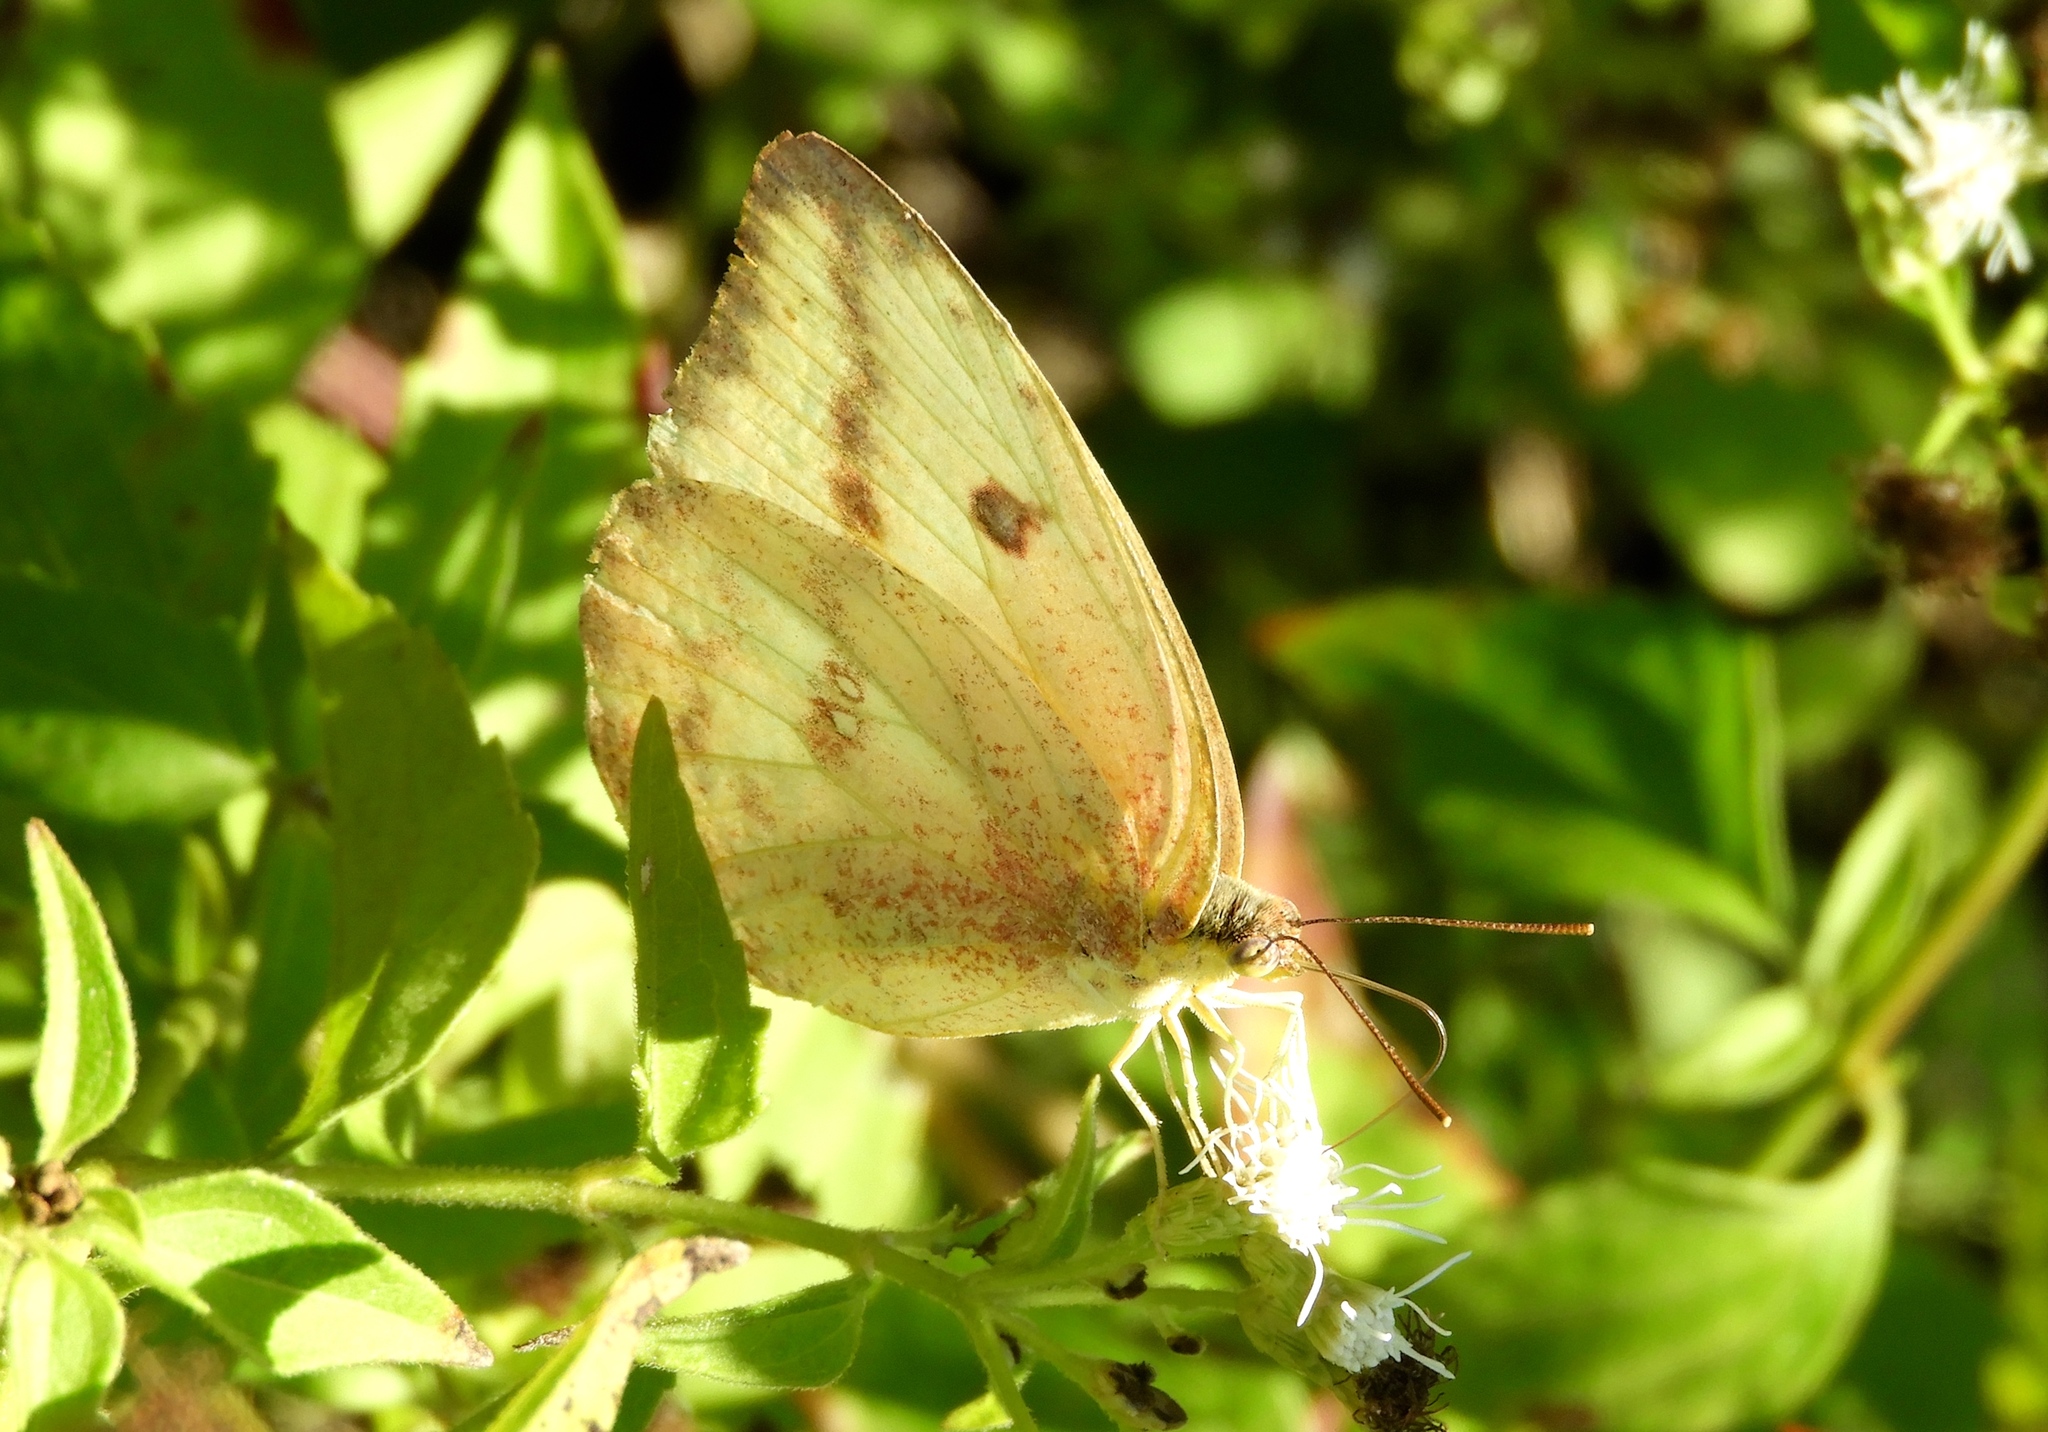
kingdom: Animalia
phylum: Arthropoda
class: Insecta
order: Lepidoptera
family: Pieridae
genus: Phoebis
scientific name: Phoebis agarithe
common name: Large orange sulphur
